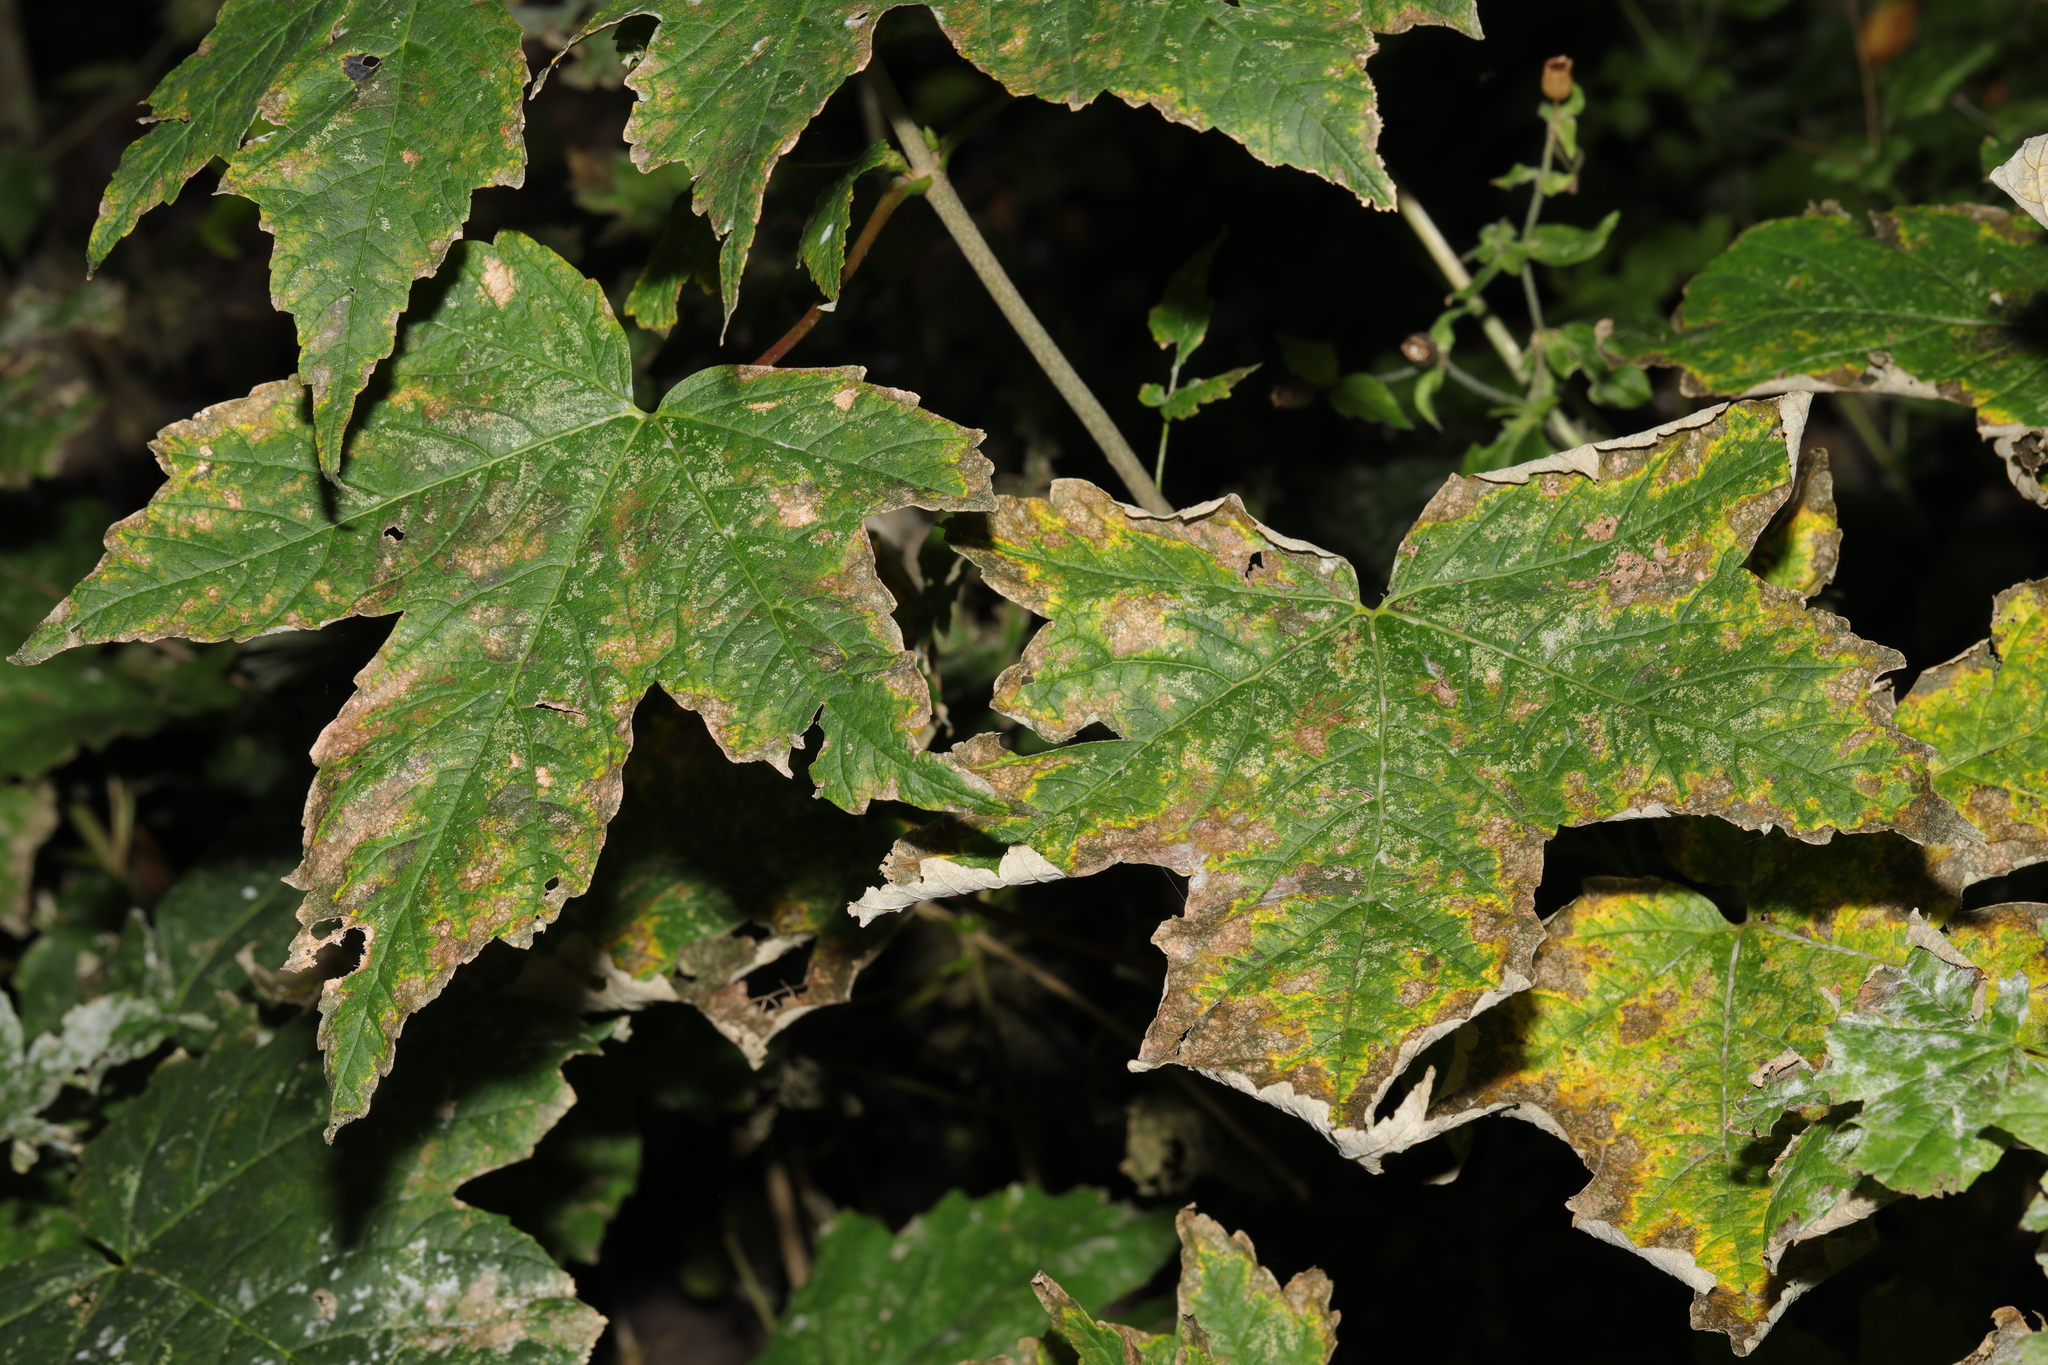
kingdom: Plantae
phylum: Tracheophyta
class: Magnoliopsida
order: Sapindales
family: Sapindaceae
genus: Acer
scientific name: Acer pseudoplatanus
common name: Sycamore
